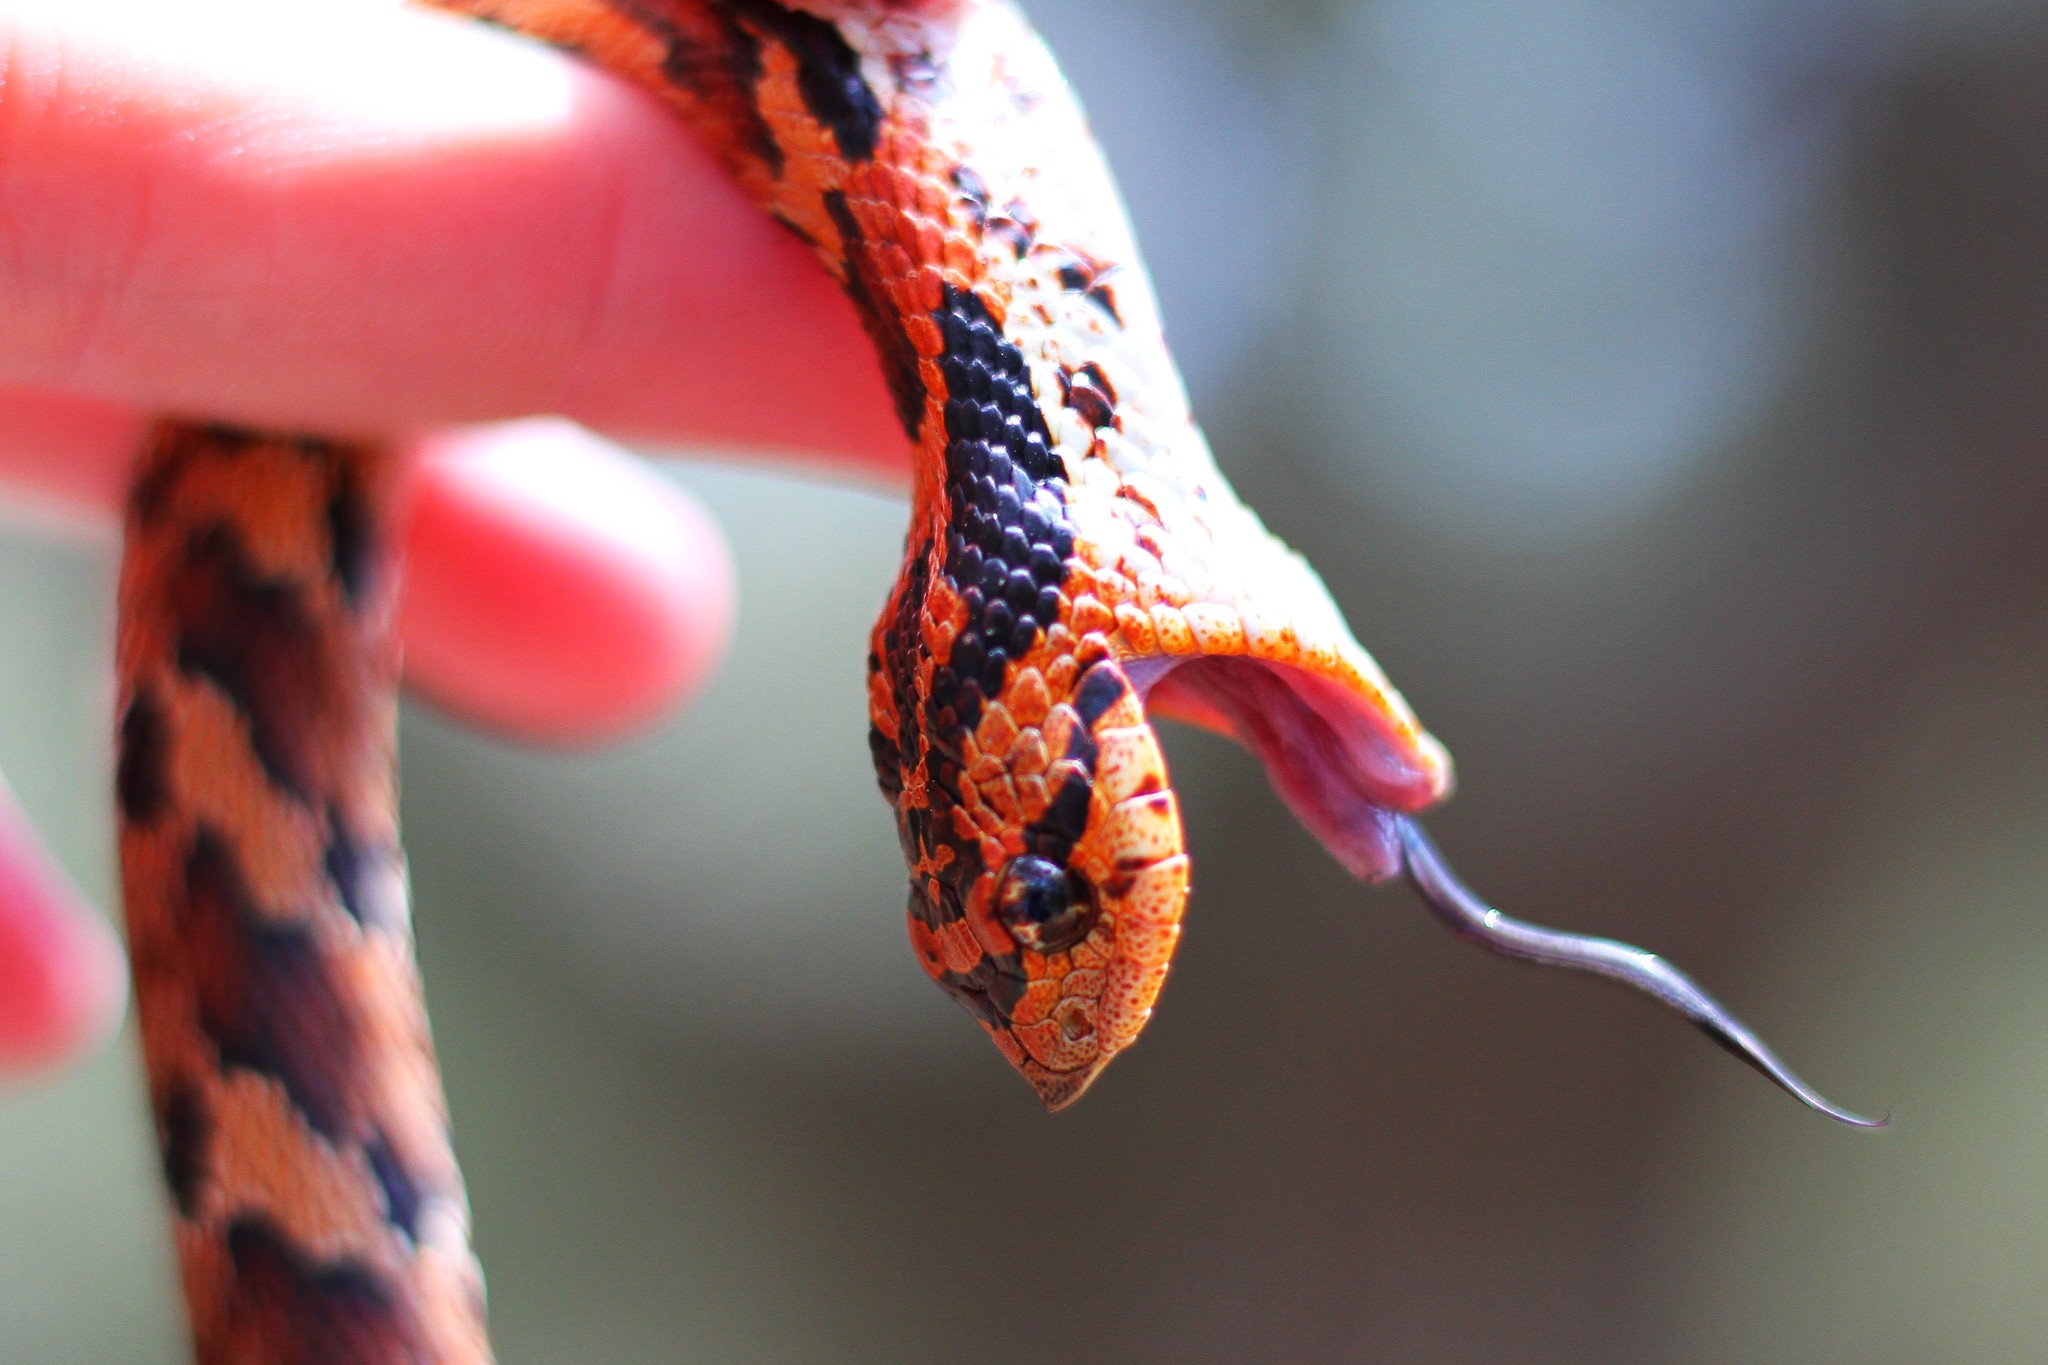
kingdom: Animalia
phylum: Chordata
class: Squamata
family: Colubridae
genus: Heterodon
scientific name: Heterodon platirhinos
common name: Eastern hognose snake
